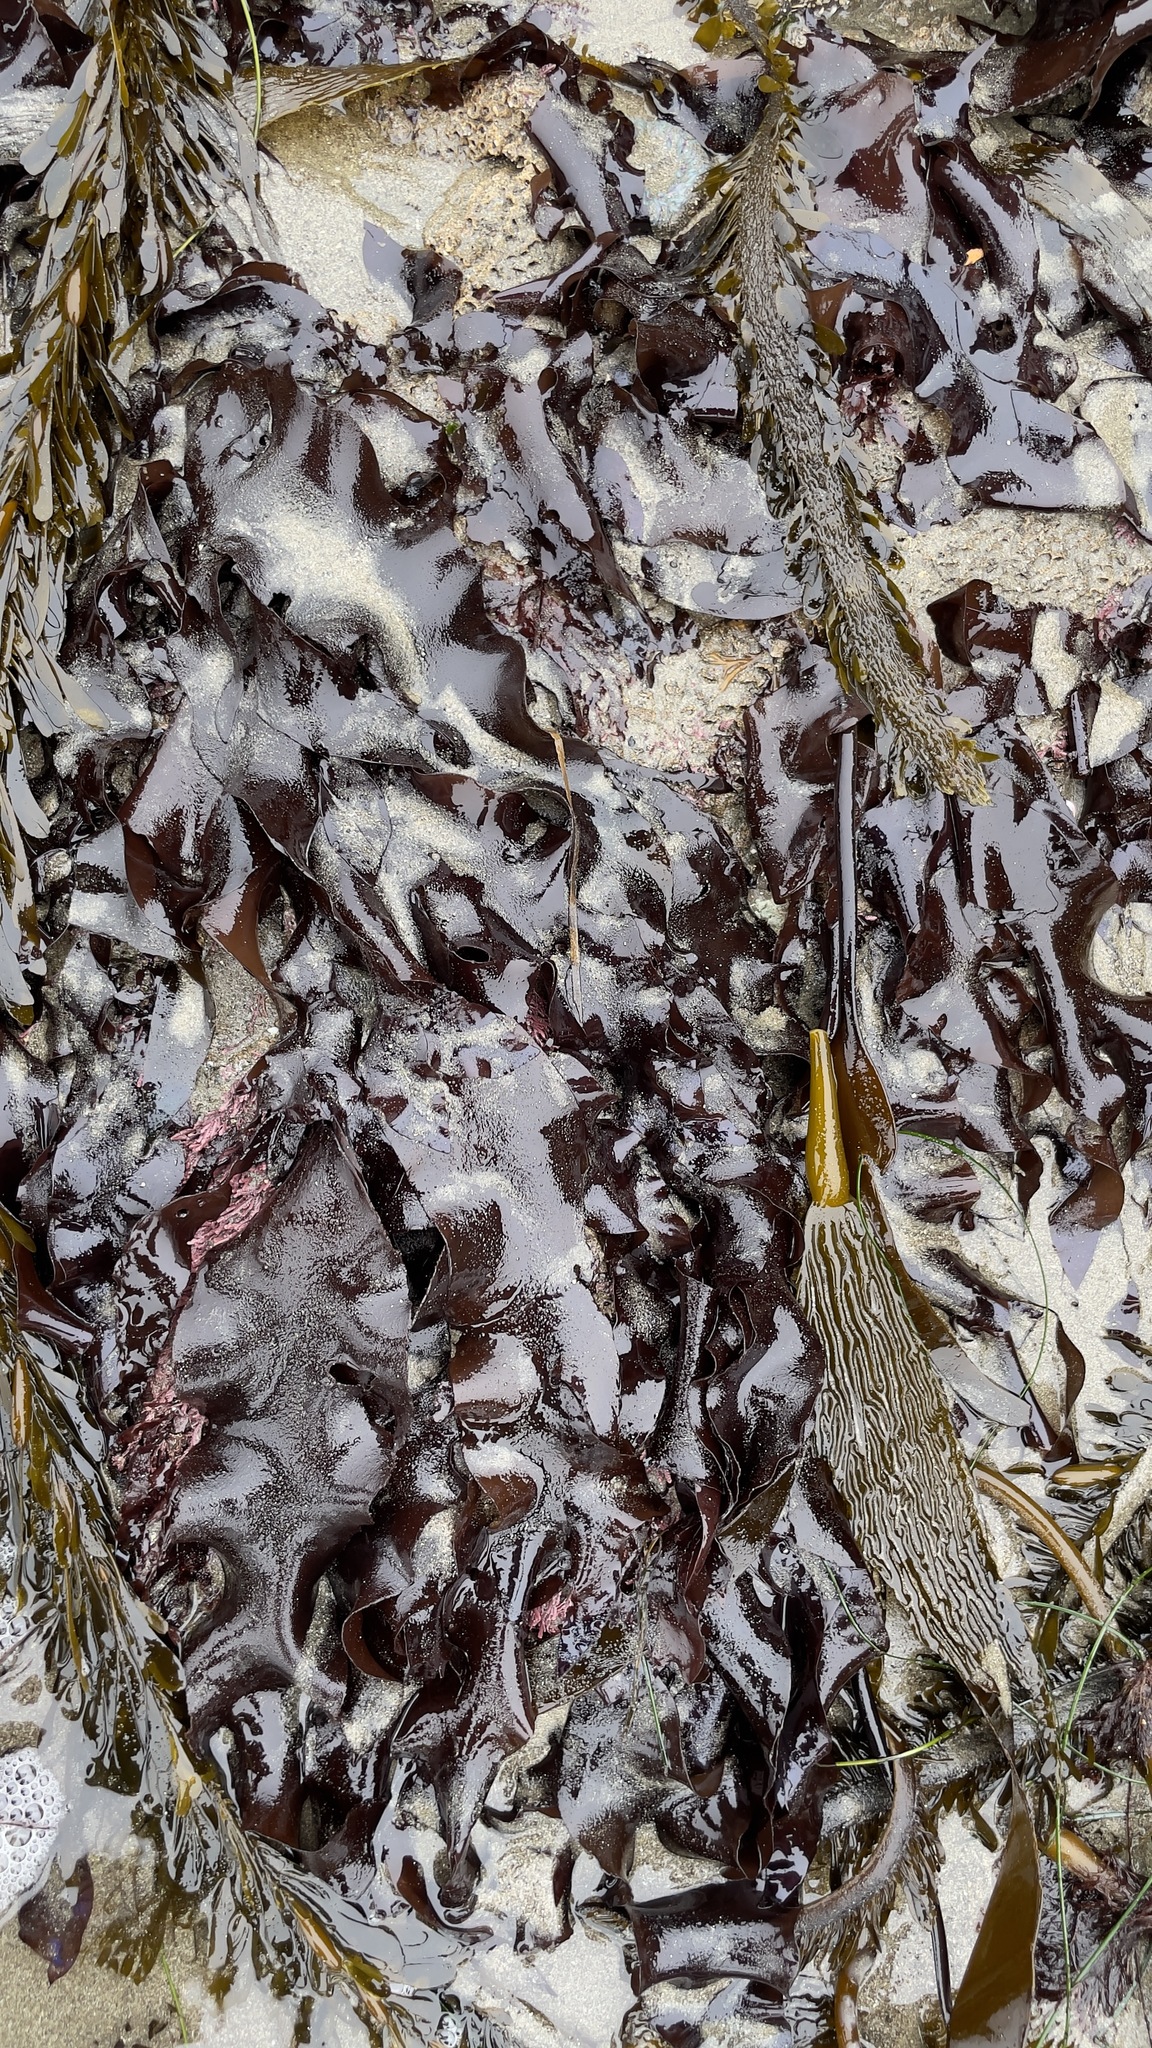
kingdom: Plantae
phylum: Rhodophyta
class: Florideophyceae
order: Gigartinales
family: Gigartinaceae
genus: Mazzaella
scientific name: Mazzaella splendens
